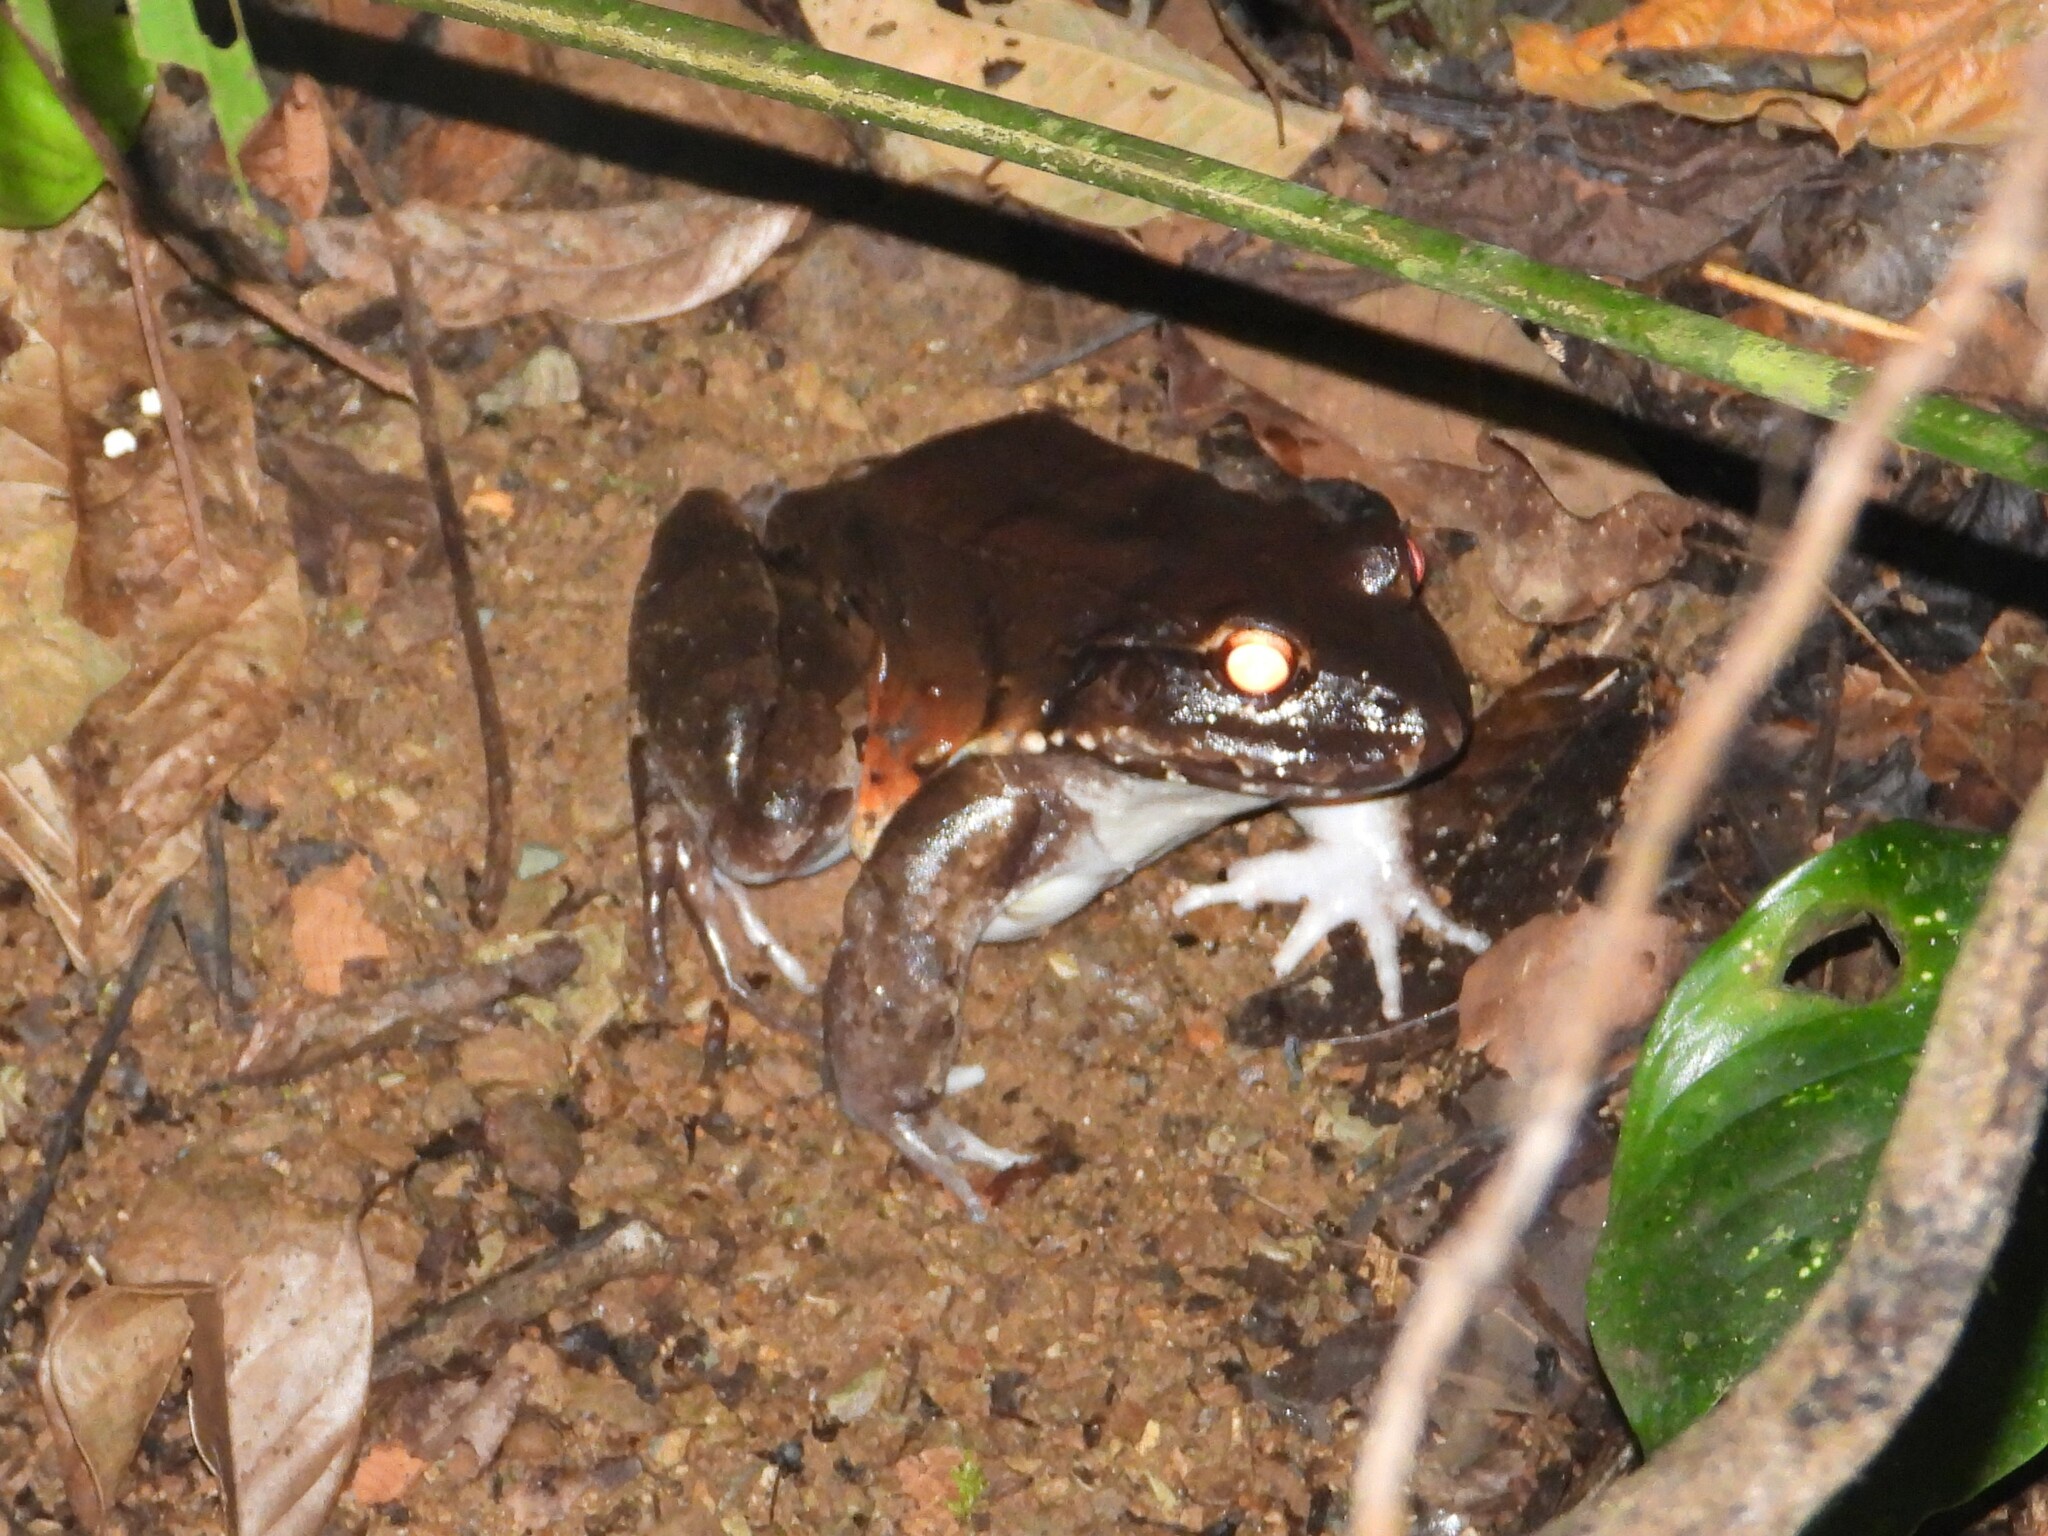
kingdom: Animalia
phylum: Chordata
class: Amphibia
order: Anura
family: Leptodactylidae
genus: Leptodactylus
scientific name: Leptodactylus savagei
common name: Savage's thin-toed frog
